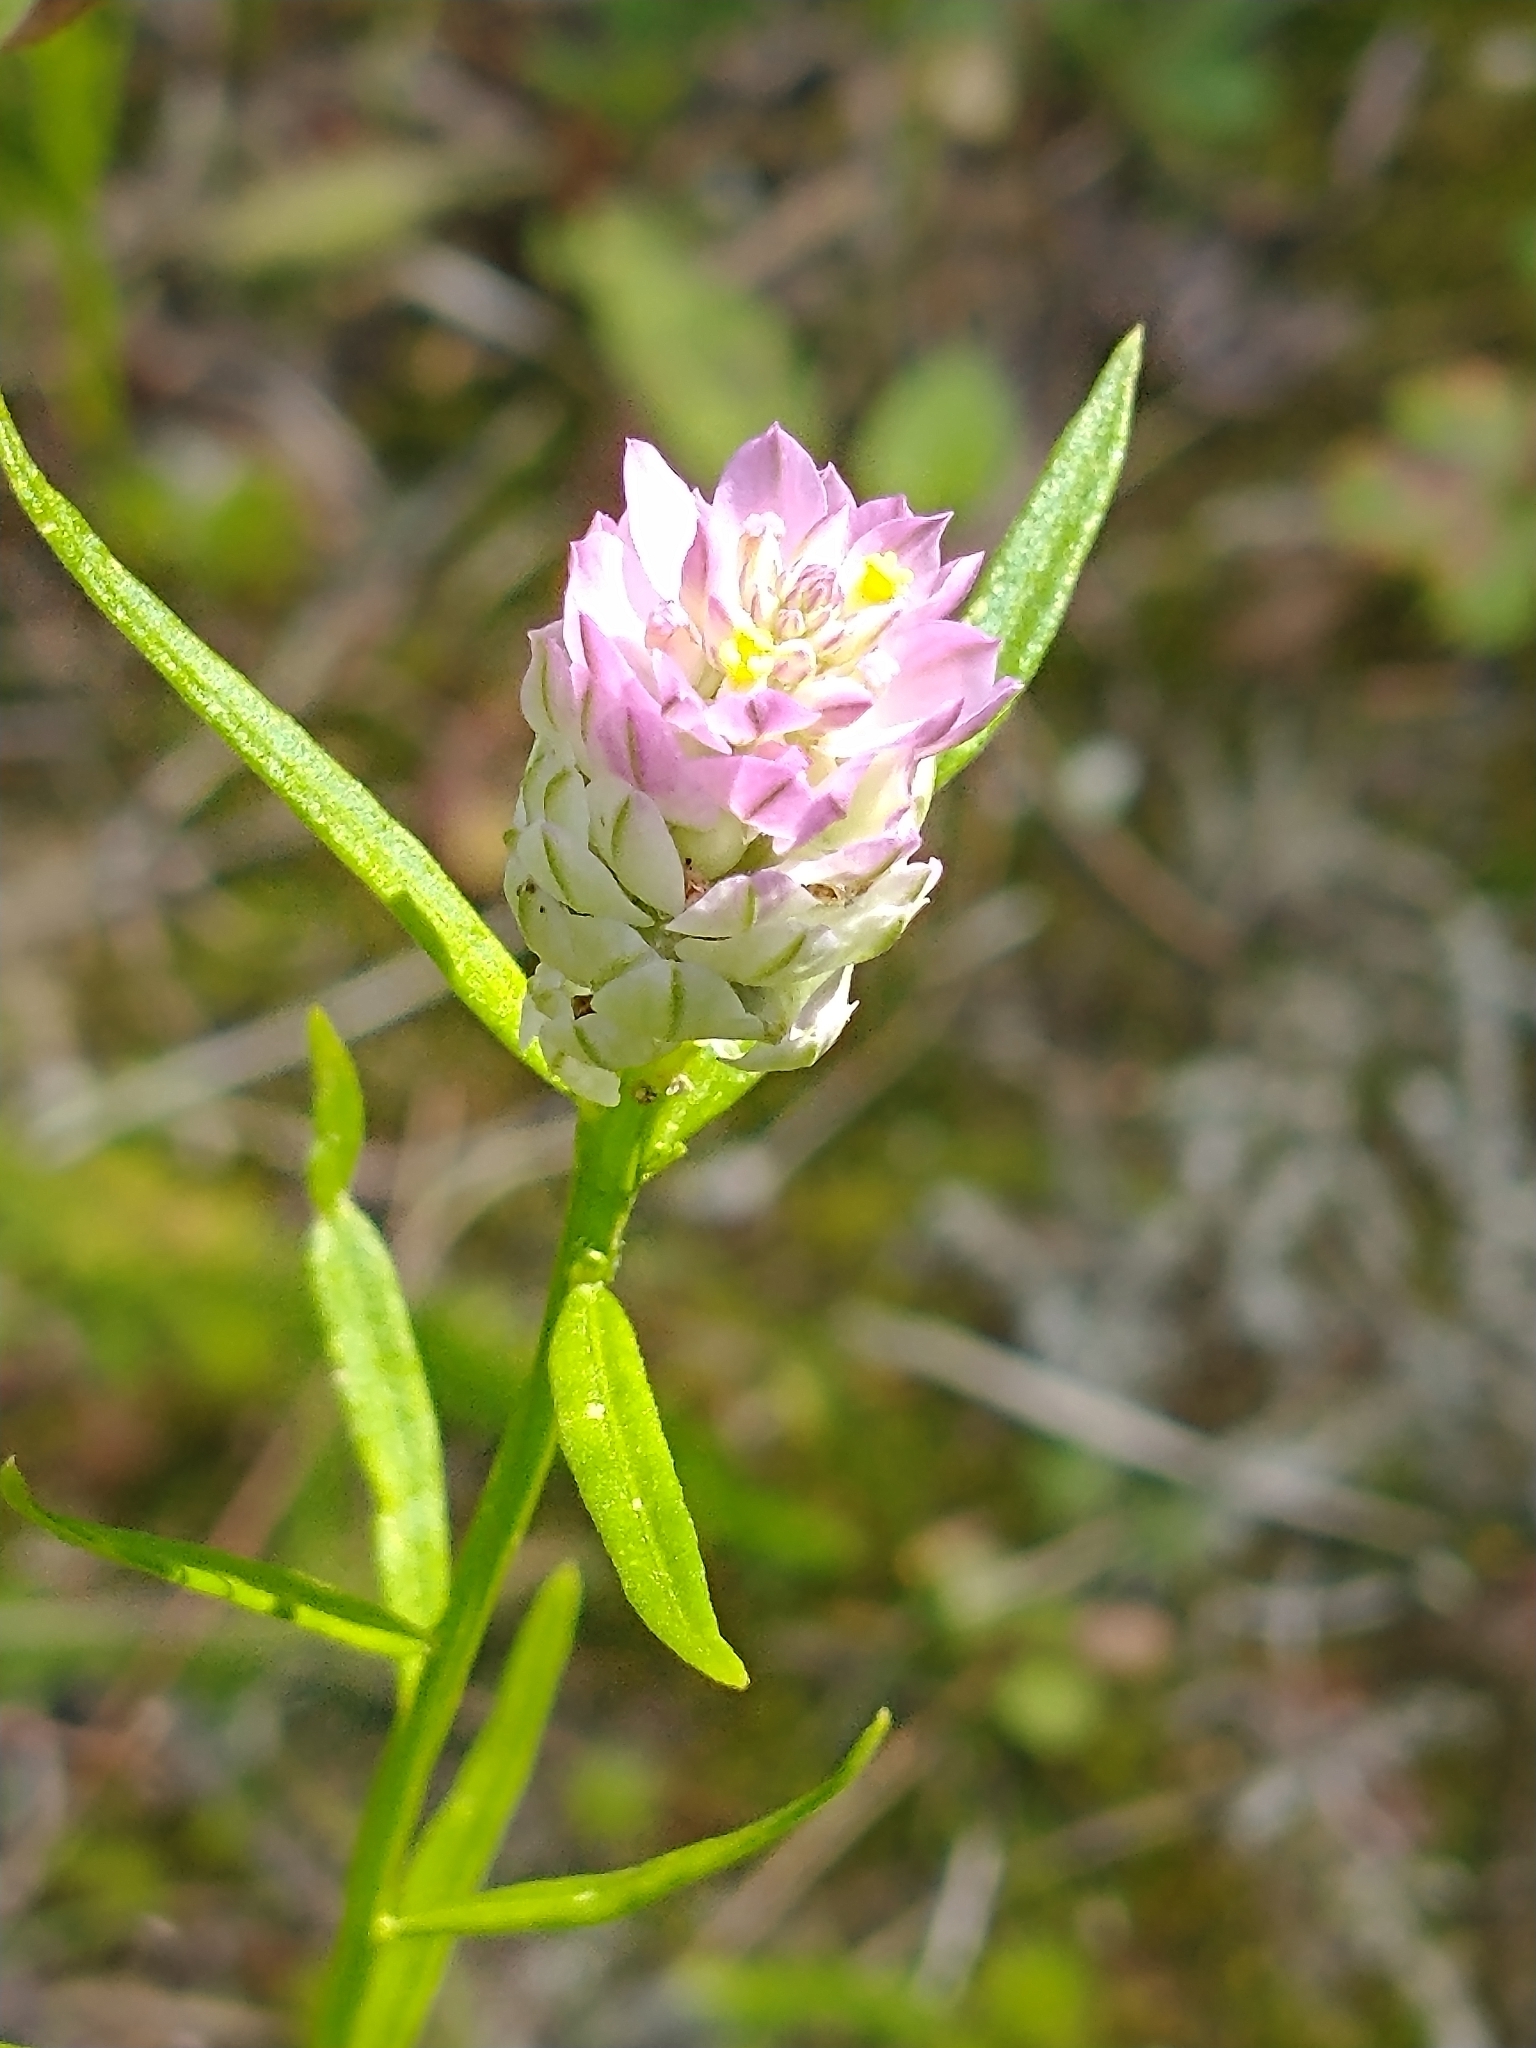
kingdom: Plantae
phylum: Tracheophyta
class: Magnoliopsida
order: Fabales
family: Polygalaceae
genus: Polygala
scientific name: Polygala sanguinea
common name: Blood milkwort
